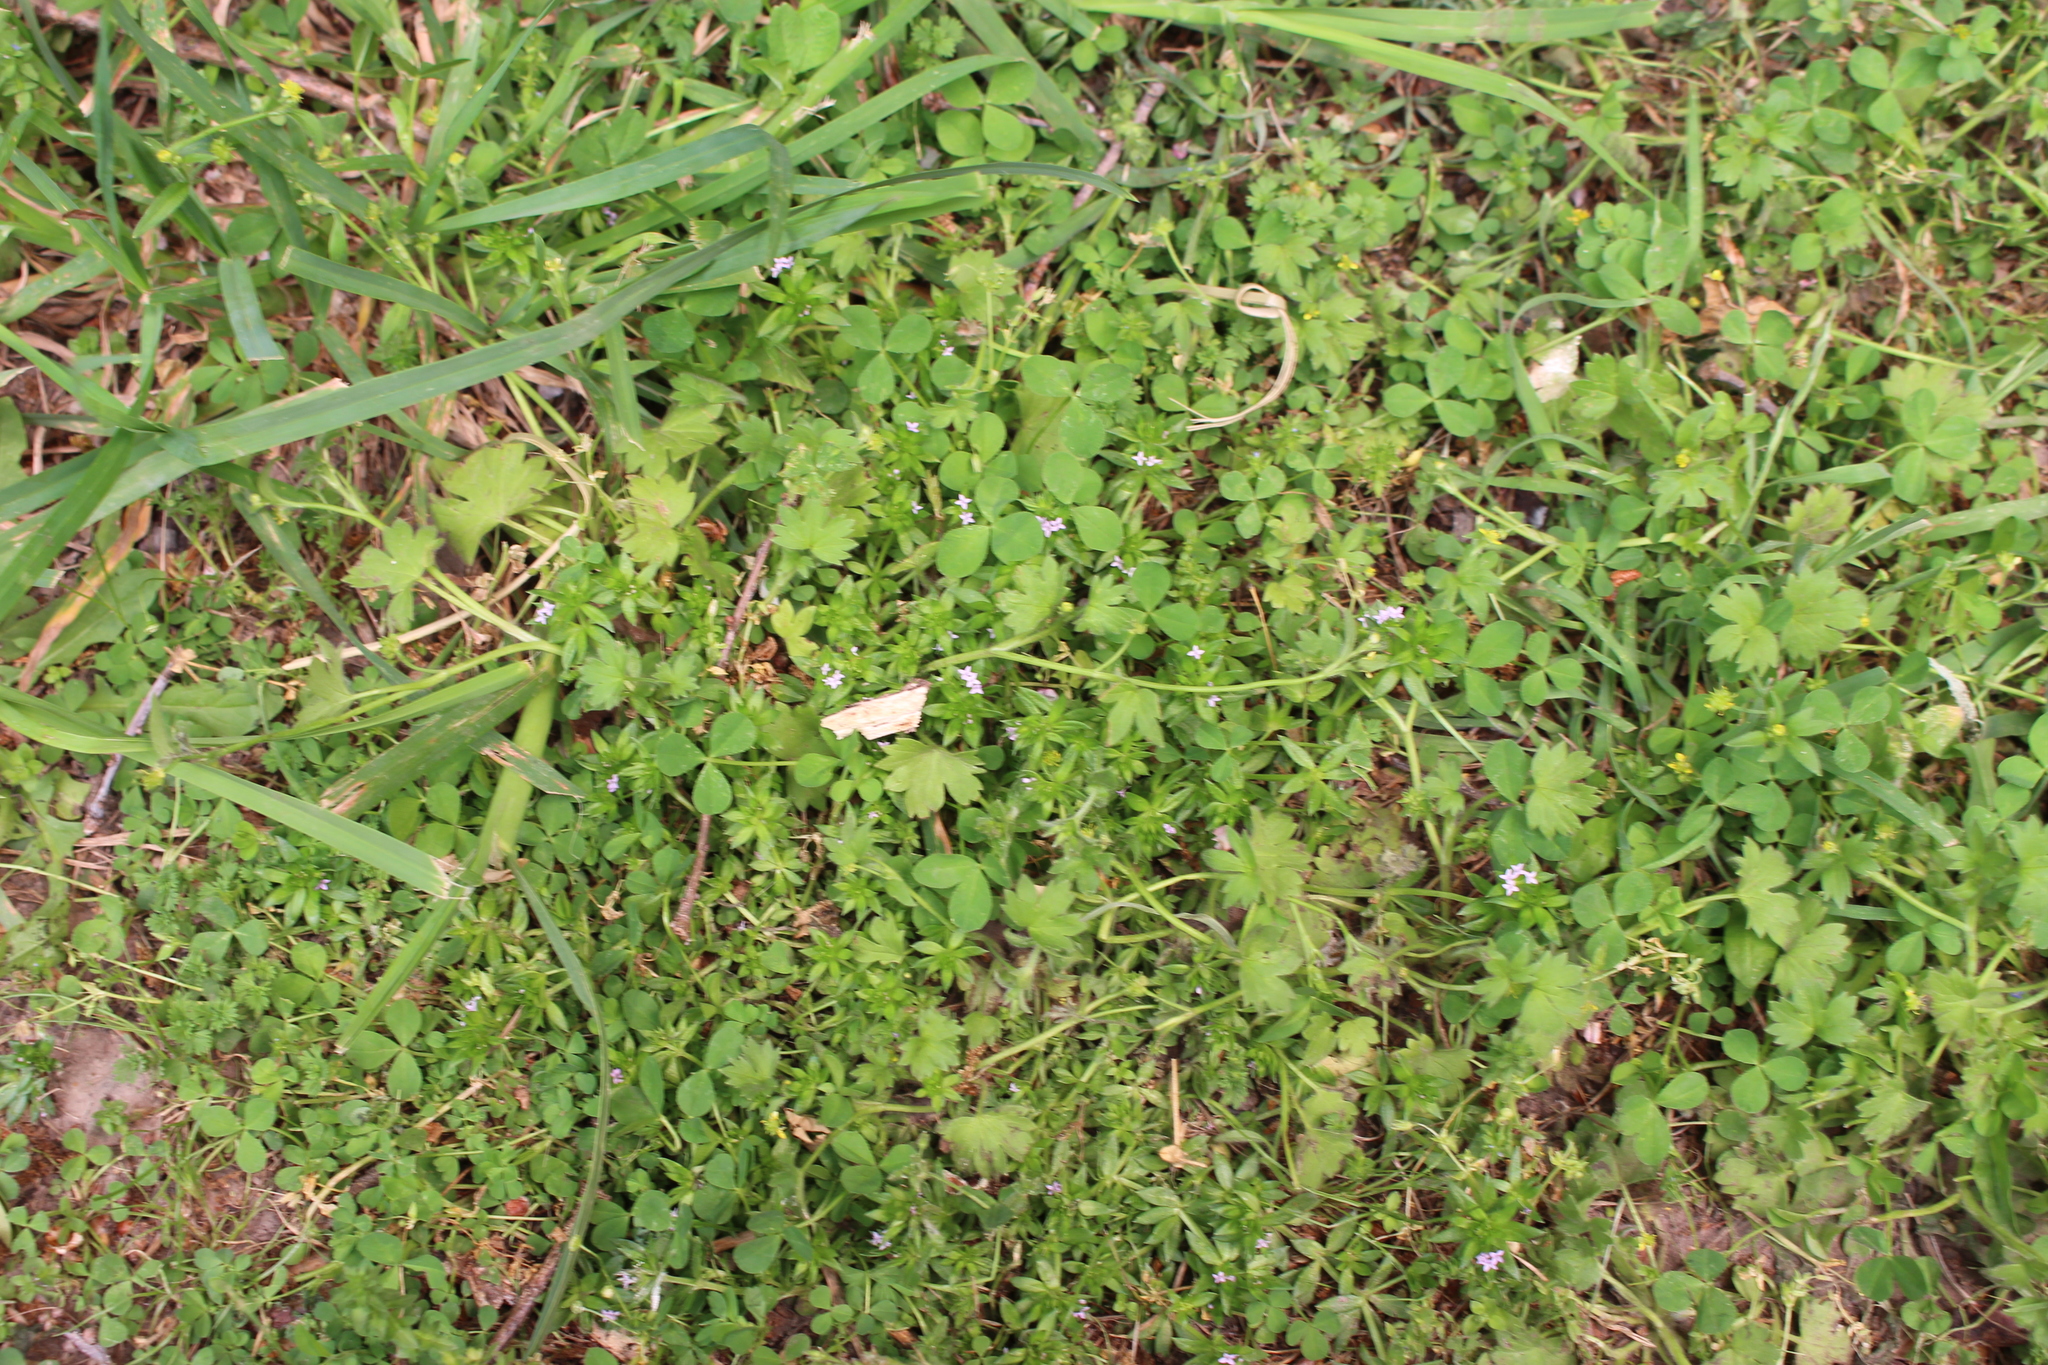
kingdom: Plantae
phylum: Tracheophyta
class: Magnoliopsida
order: Gentianales
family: Rubiaceae
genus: Sherardia
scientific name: Sherardia arvensis
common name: Field madder
